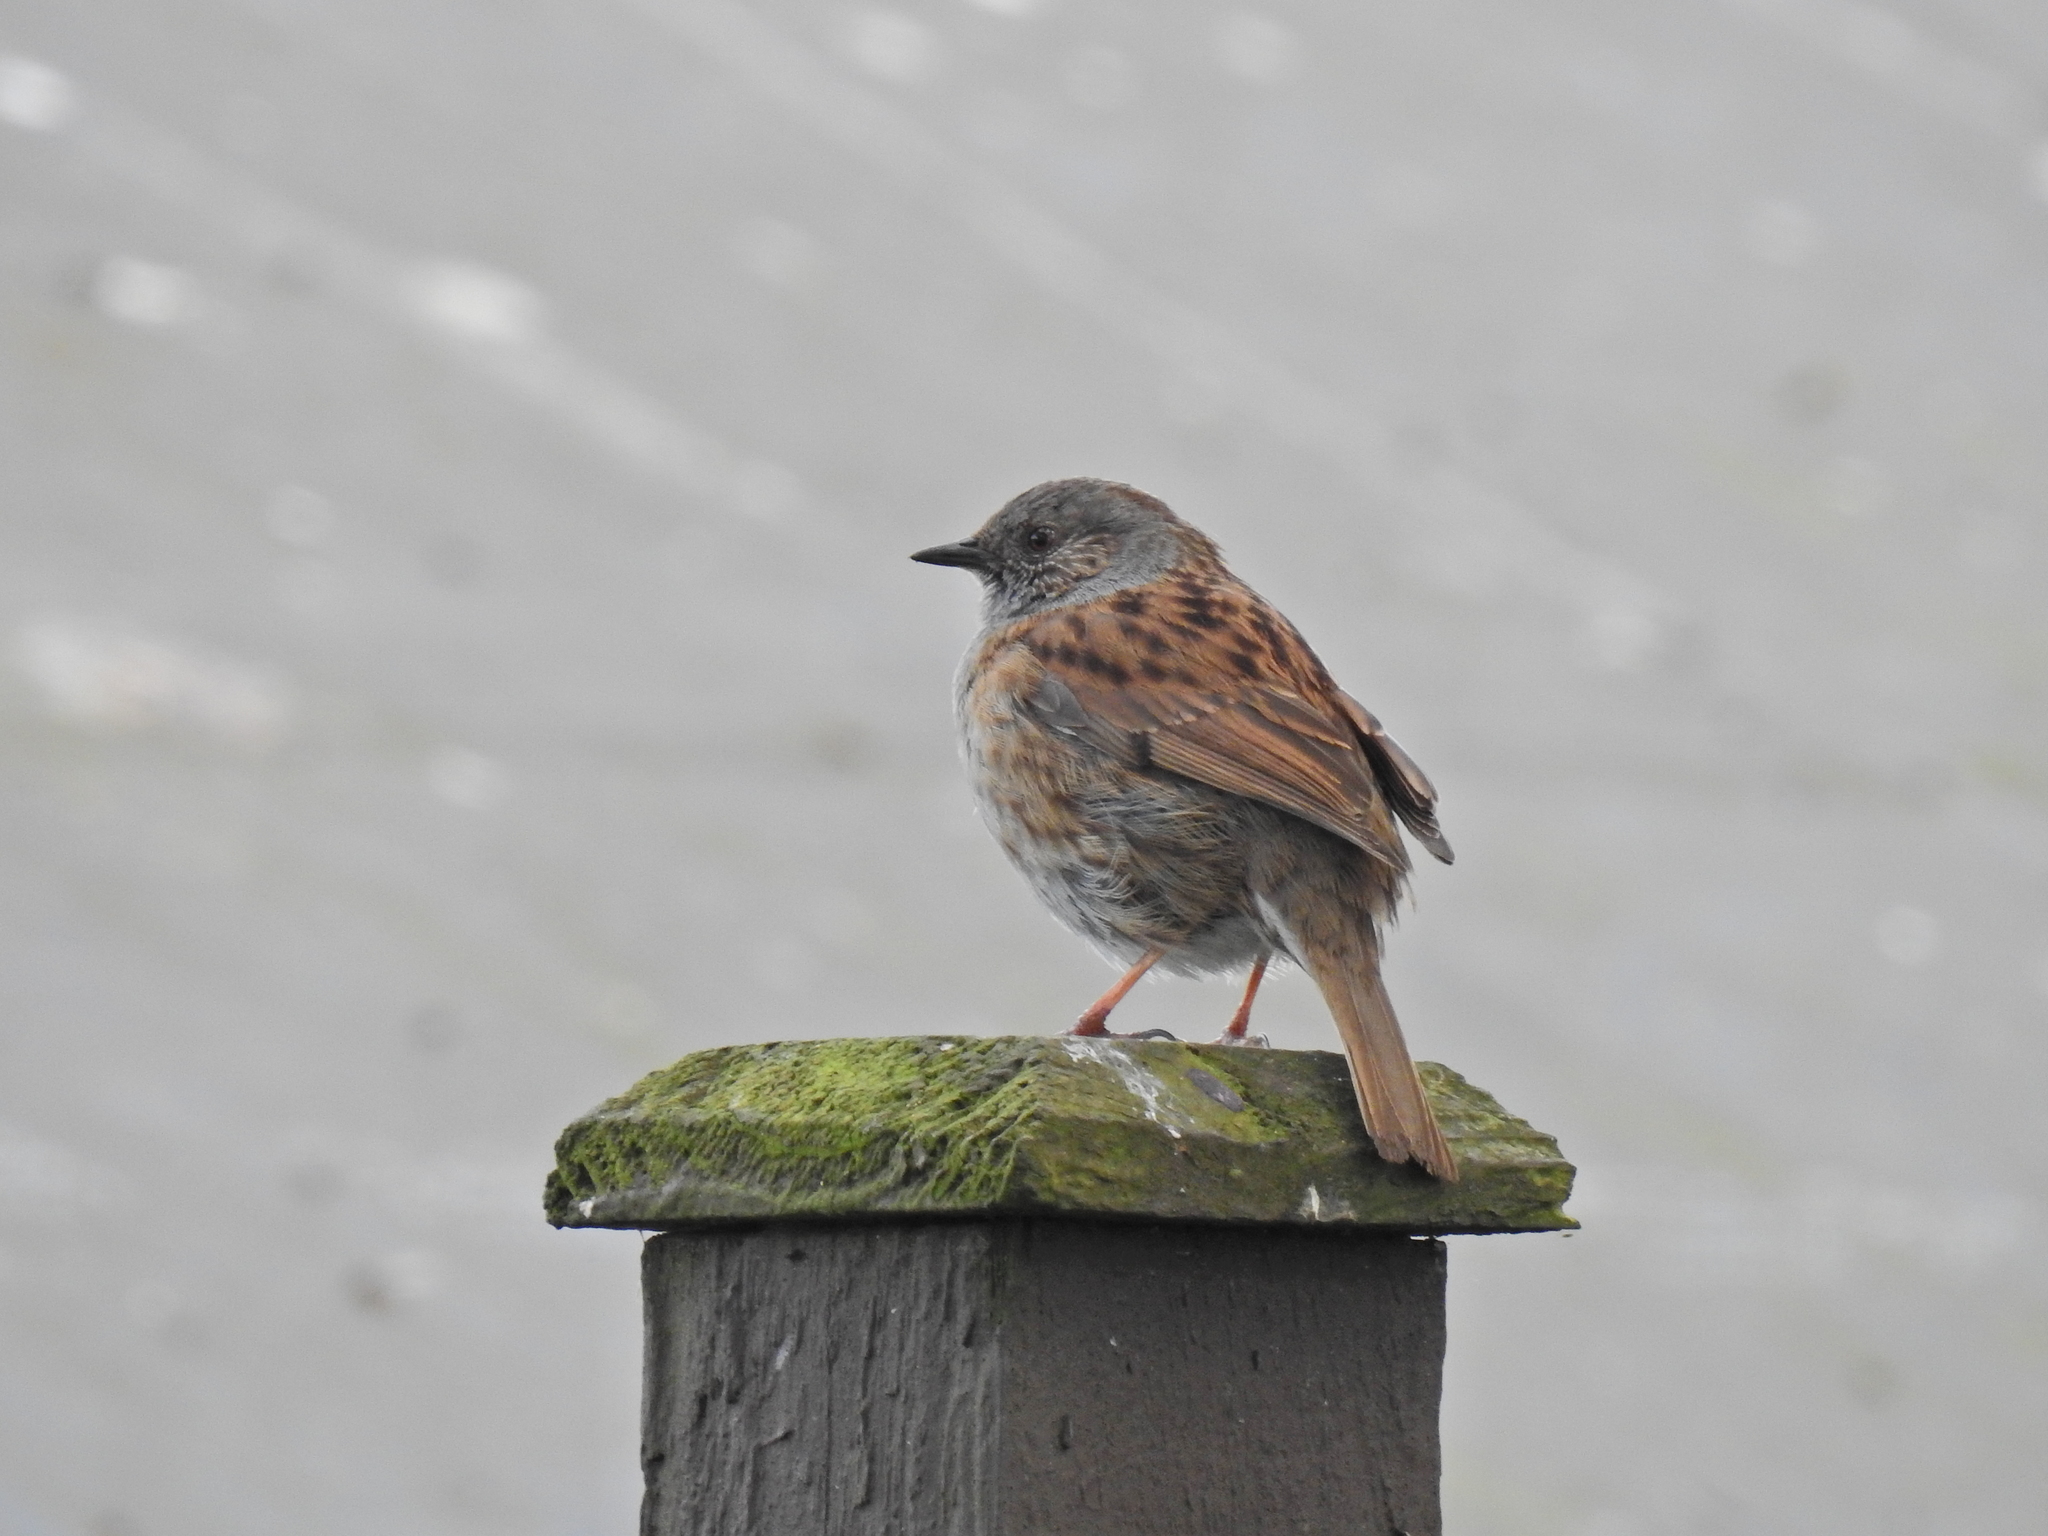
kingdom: Animalia
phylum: Chordata
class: Aves
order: Passeriformes
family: Prunellidae
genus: Prunella
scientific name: Prunella modularis
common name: Dunnock
